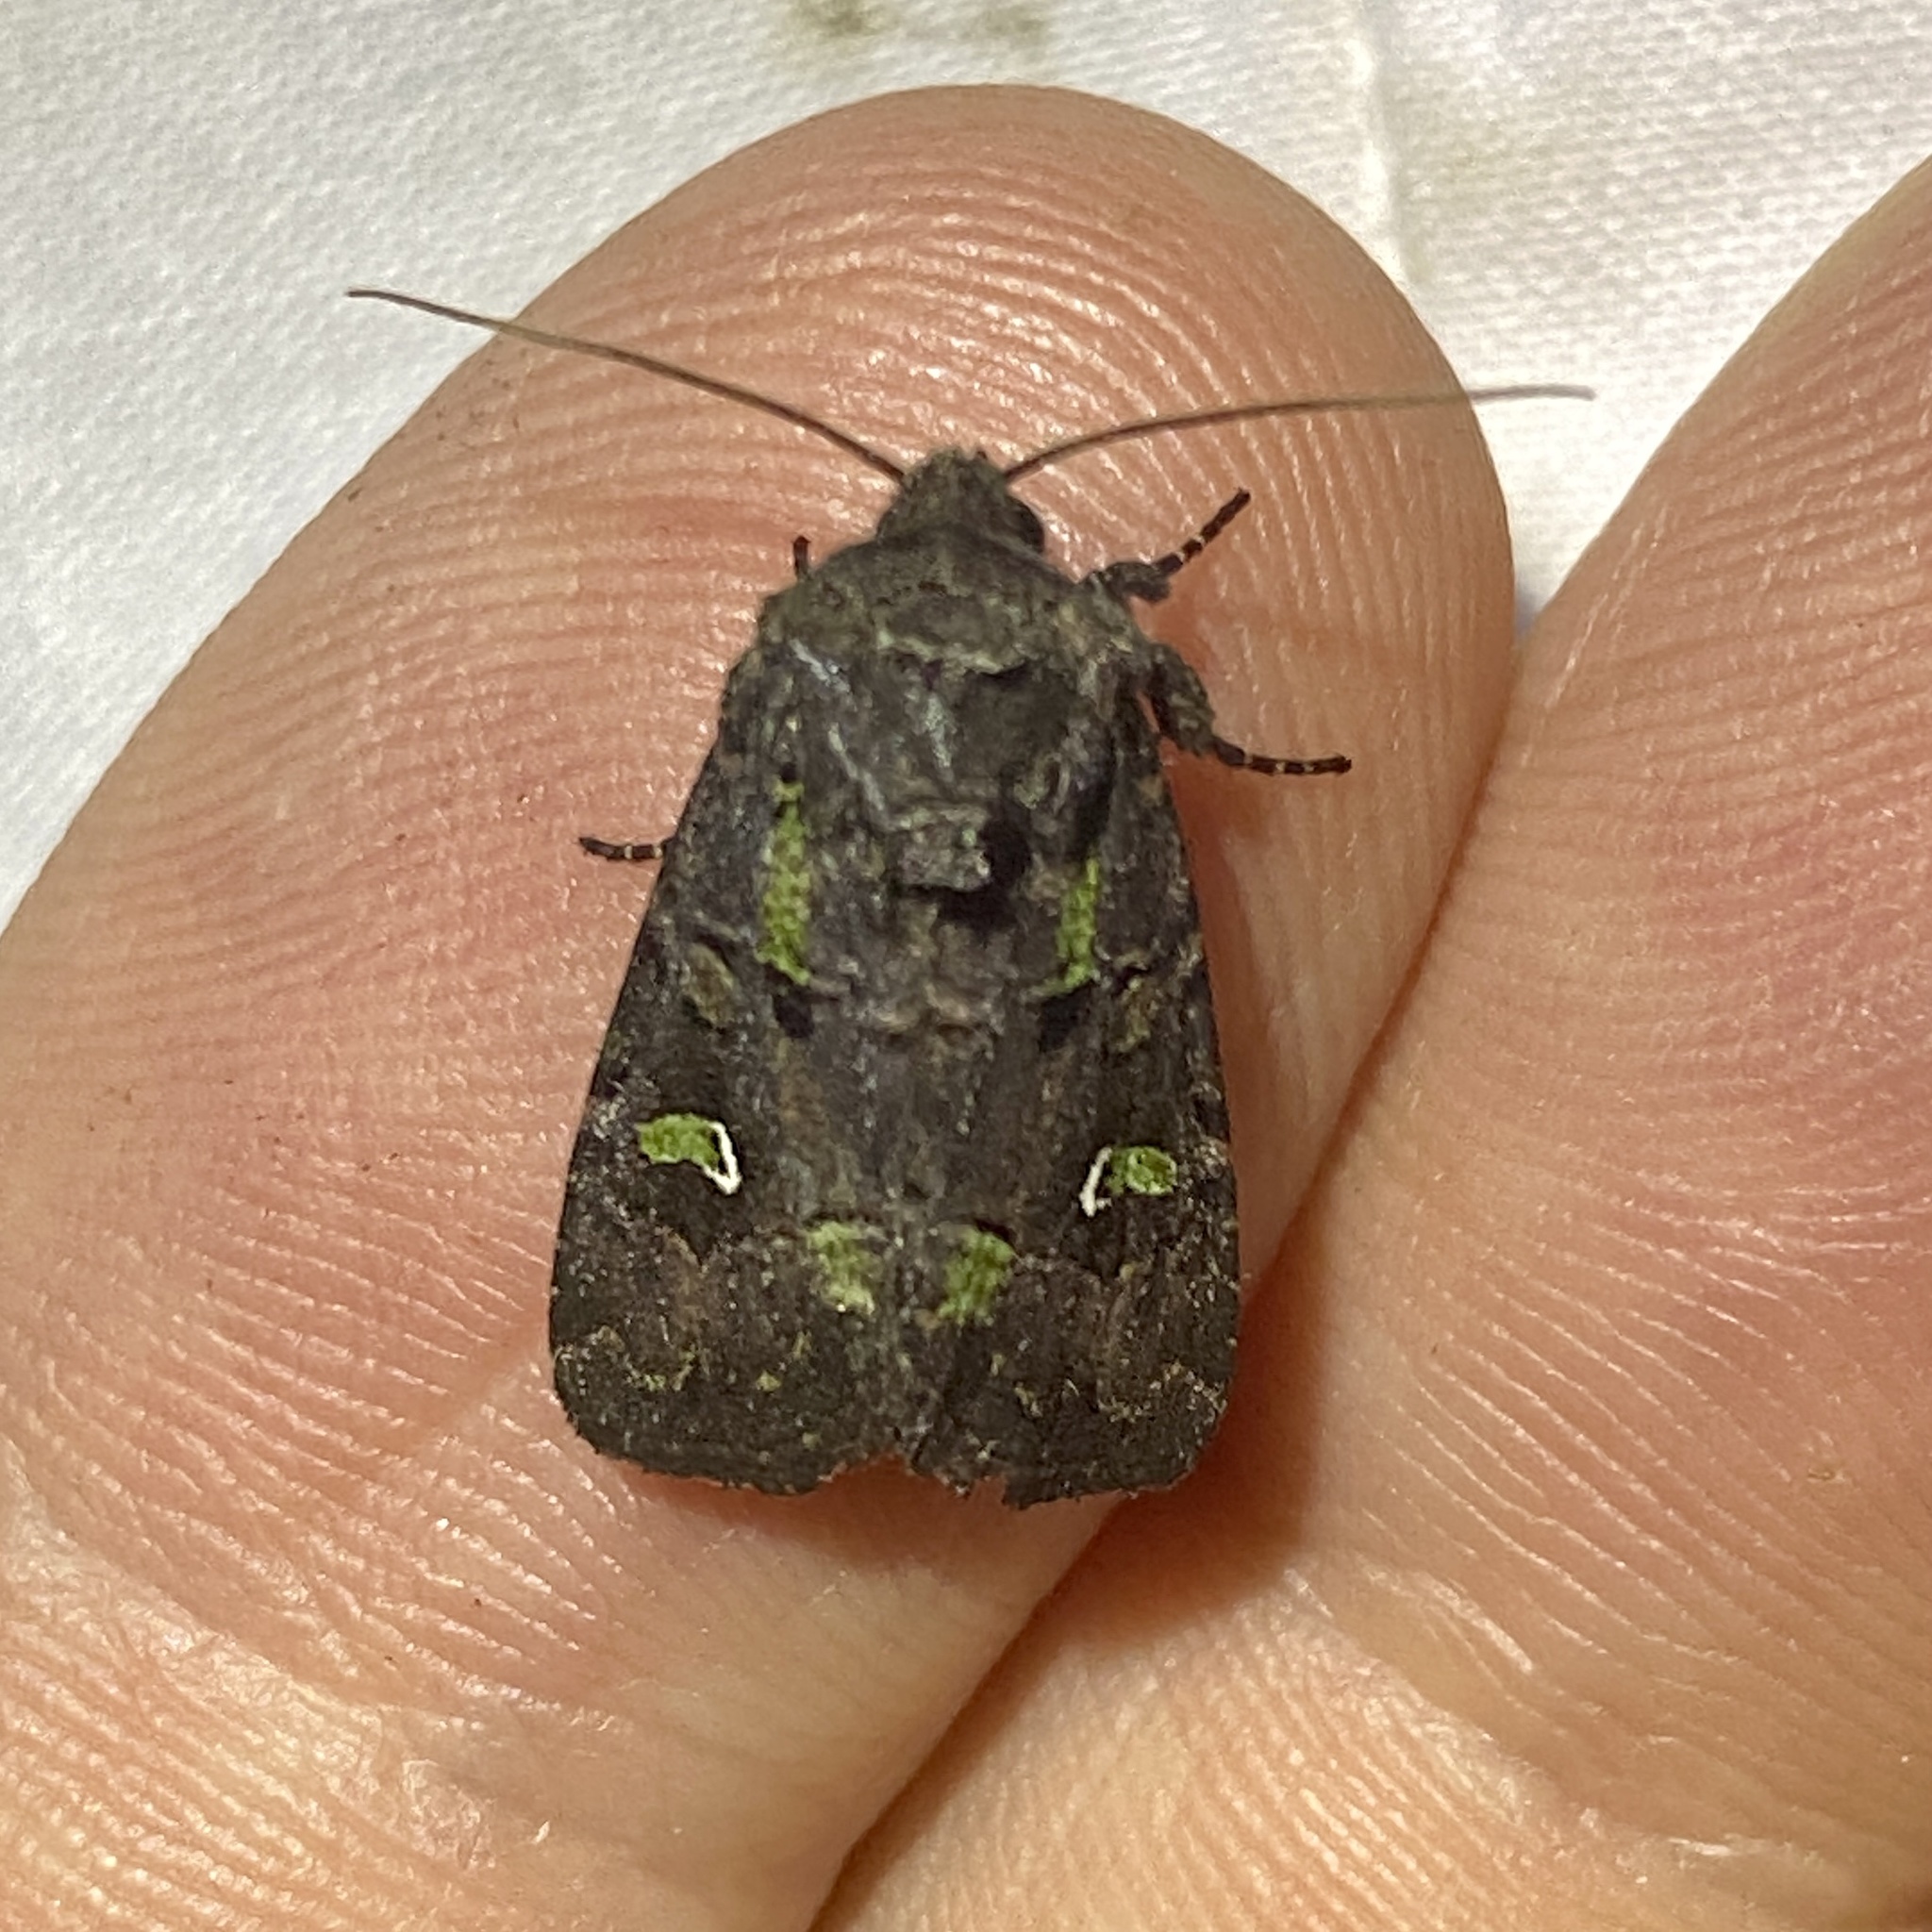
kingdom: Animalia
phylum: Arthropoda
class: Insecta
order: Lepidoptera
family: Noctuidae
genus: Lacinipolia
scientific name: Lacinipolia renigera
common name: Kidney-spotted minor
